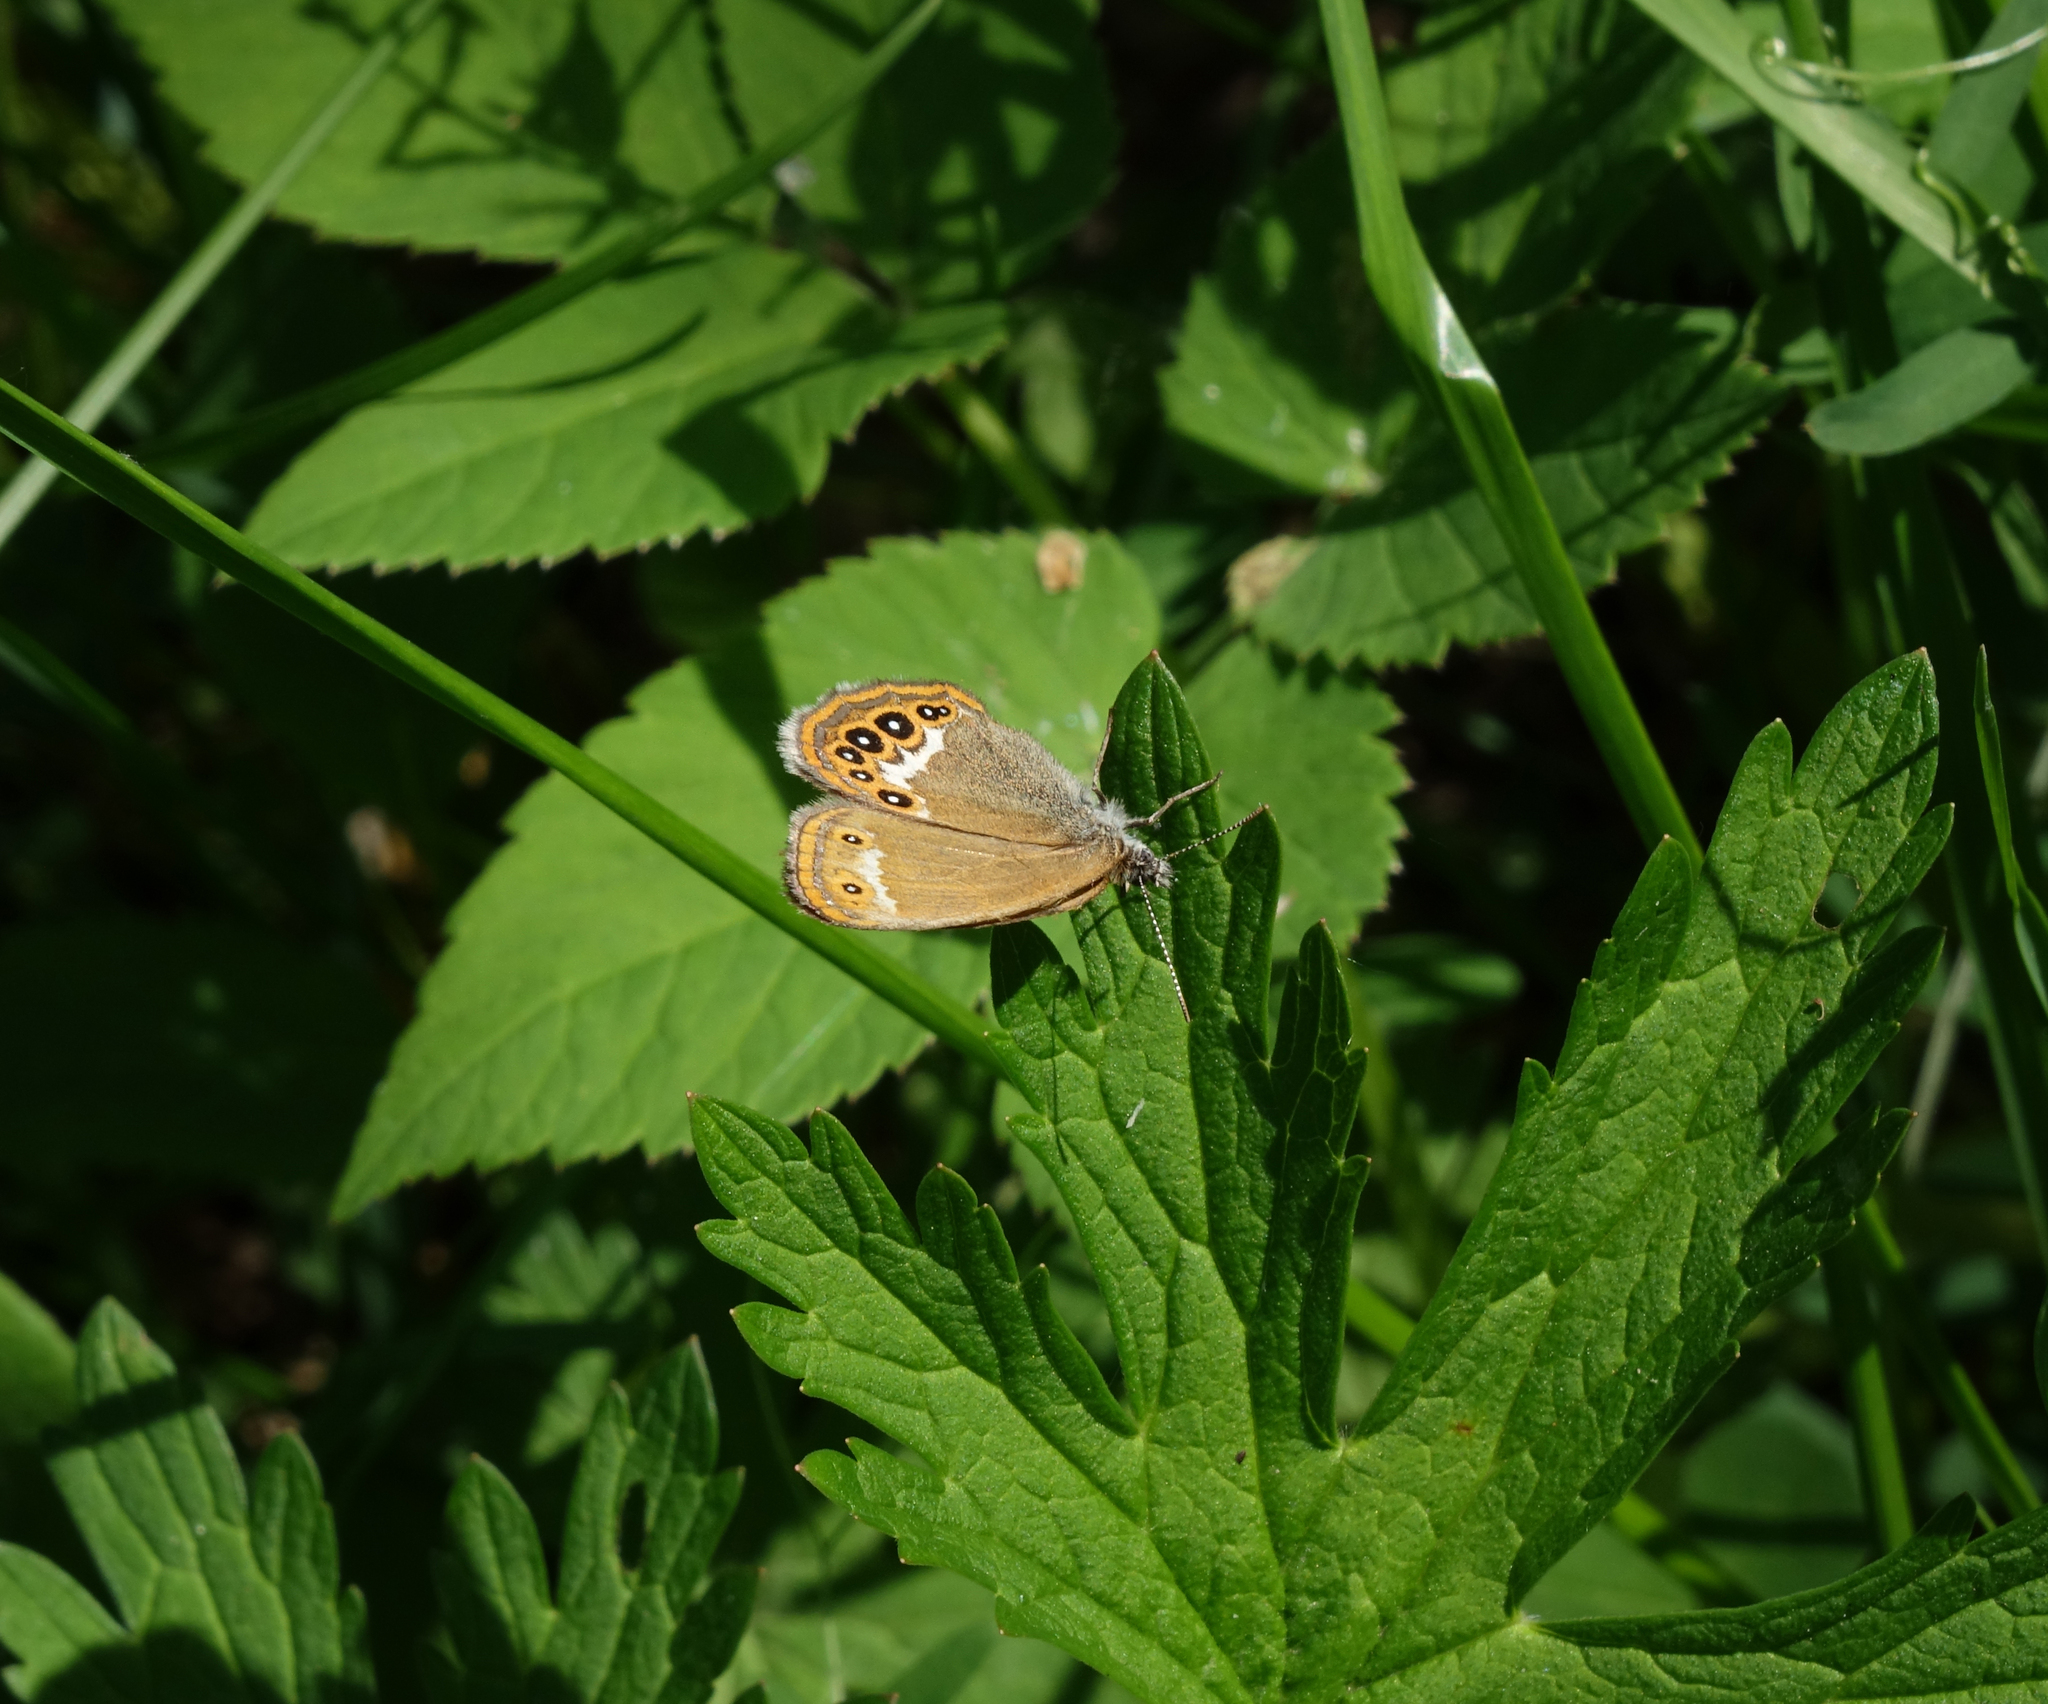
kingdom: Animalia
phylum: Arthropoda
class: Insecta
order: Lepidoptera
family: Nymphalidae
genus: Coenonympha
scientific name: Coenonympha hero
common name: Scarce heath
